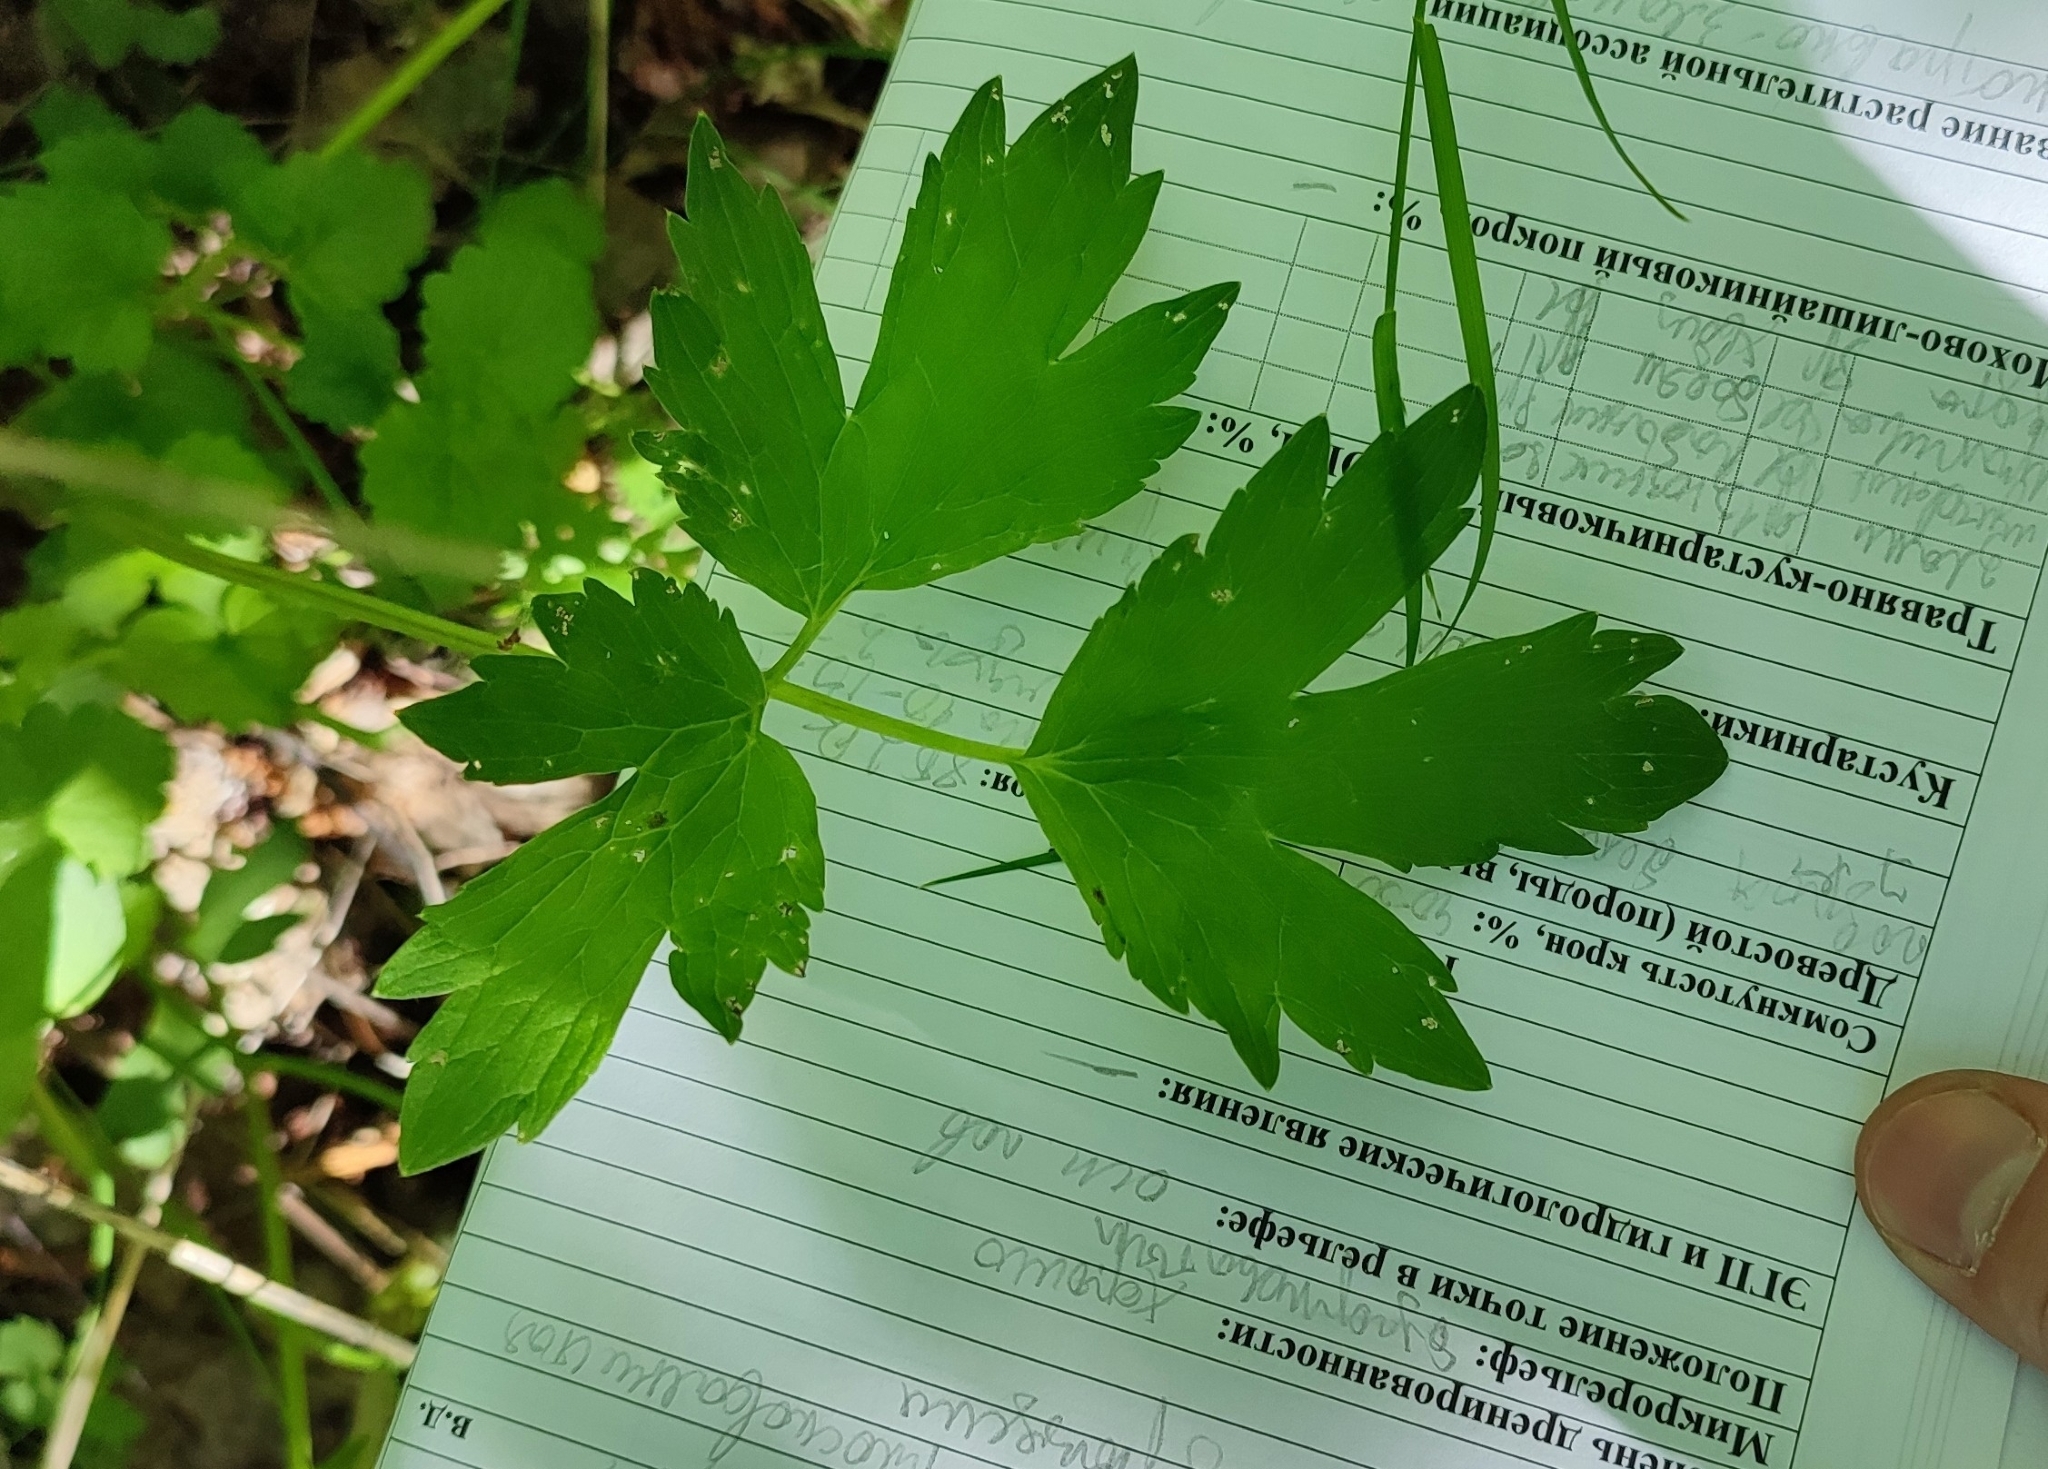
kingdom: Plantae
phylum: Tracheophyta
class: Magnoliopsida
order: Ranunculales
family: Ranunculaceae
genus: Ranunculus
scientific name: Ranunculus repens
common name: Creeping buttercup
